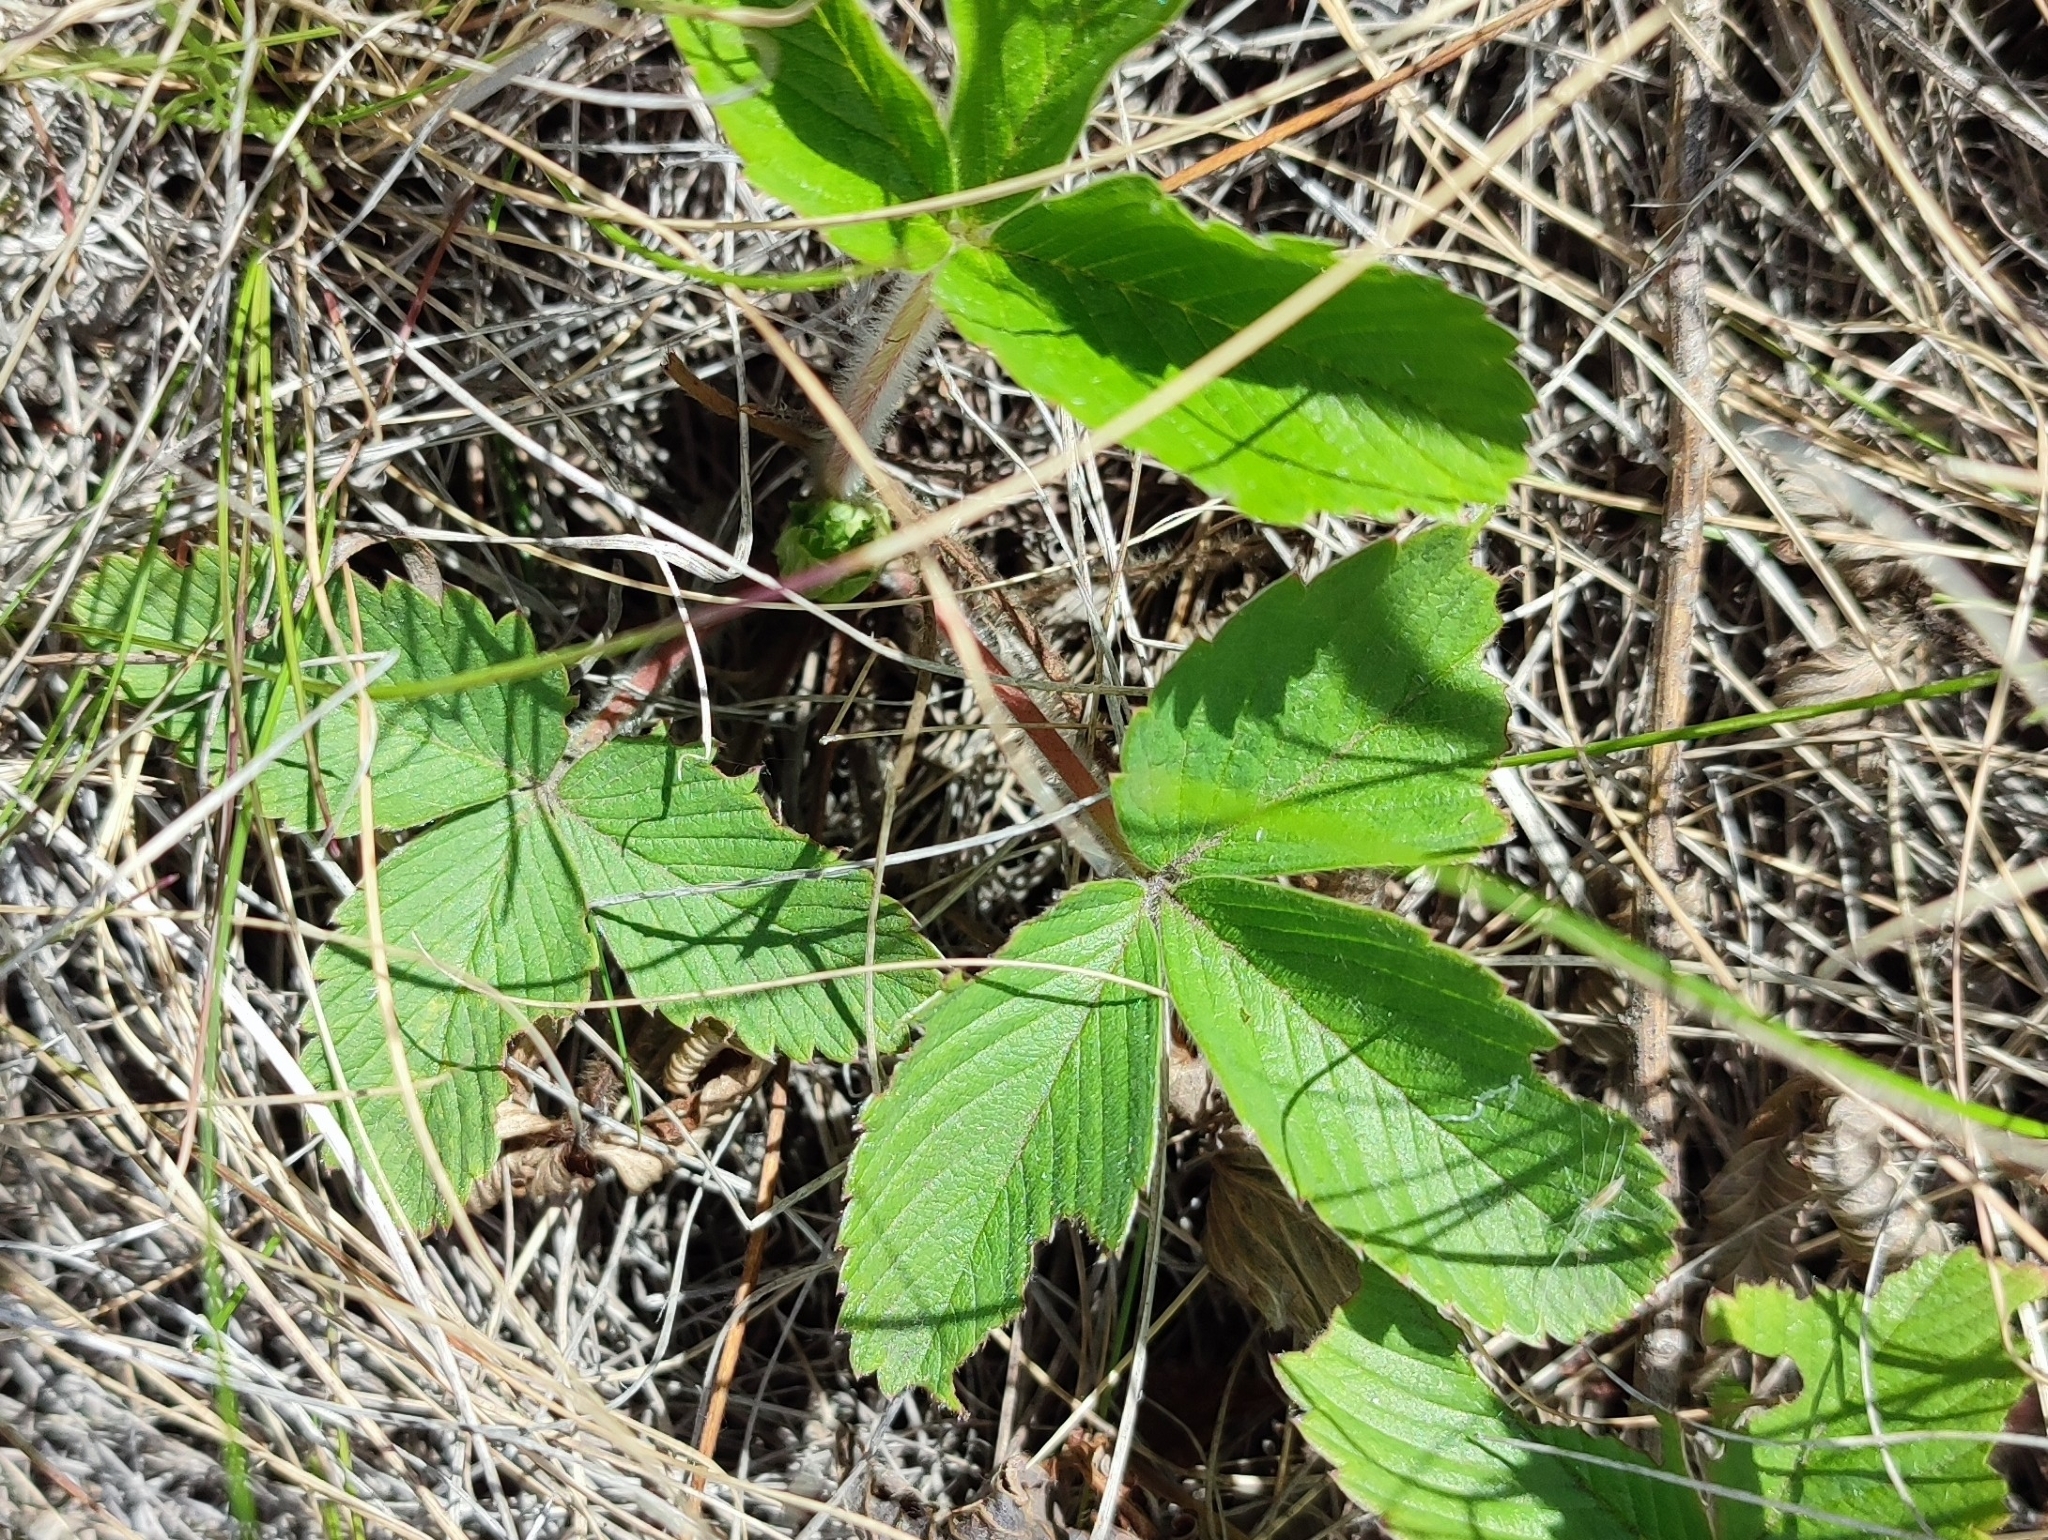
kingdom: Plantae
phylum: Tracheophyta
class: Magnoliopsida
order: Rosales
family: Rosaceae
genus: Fragaria
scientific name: Fragaria viridis
